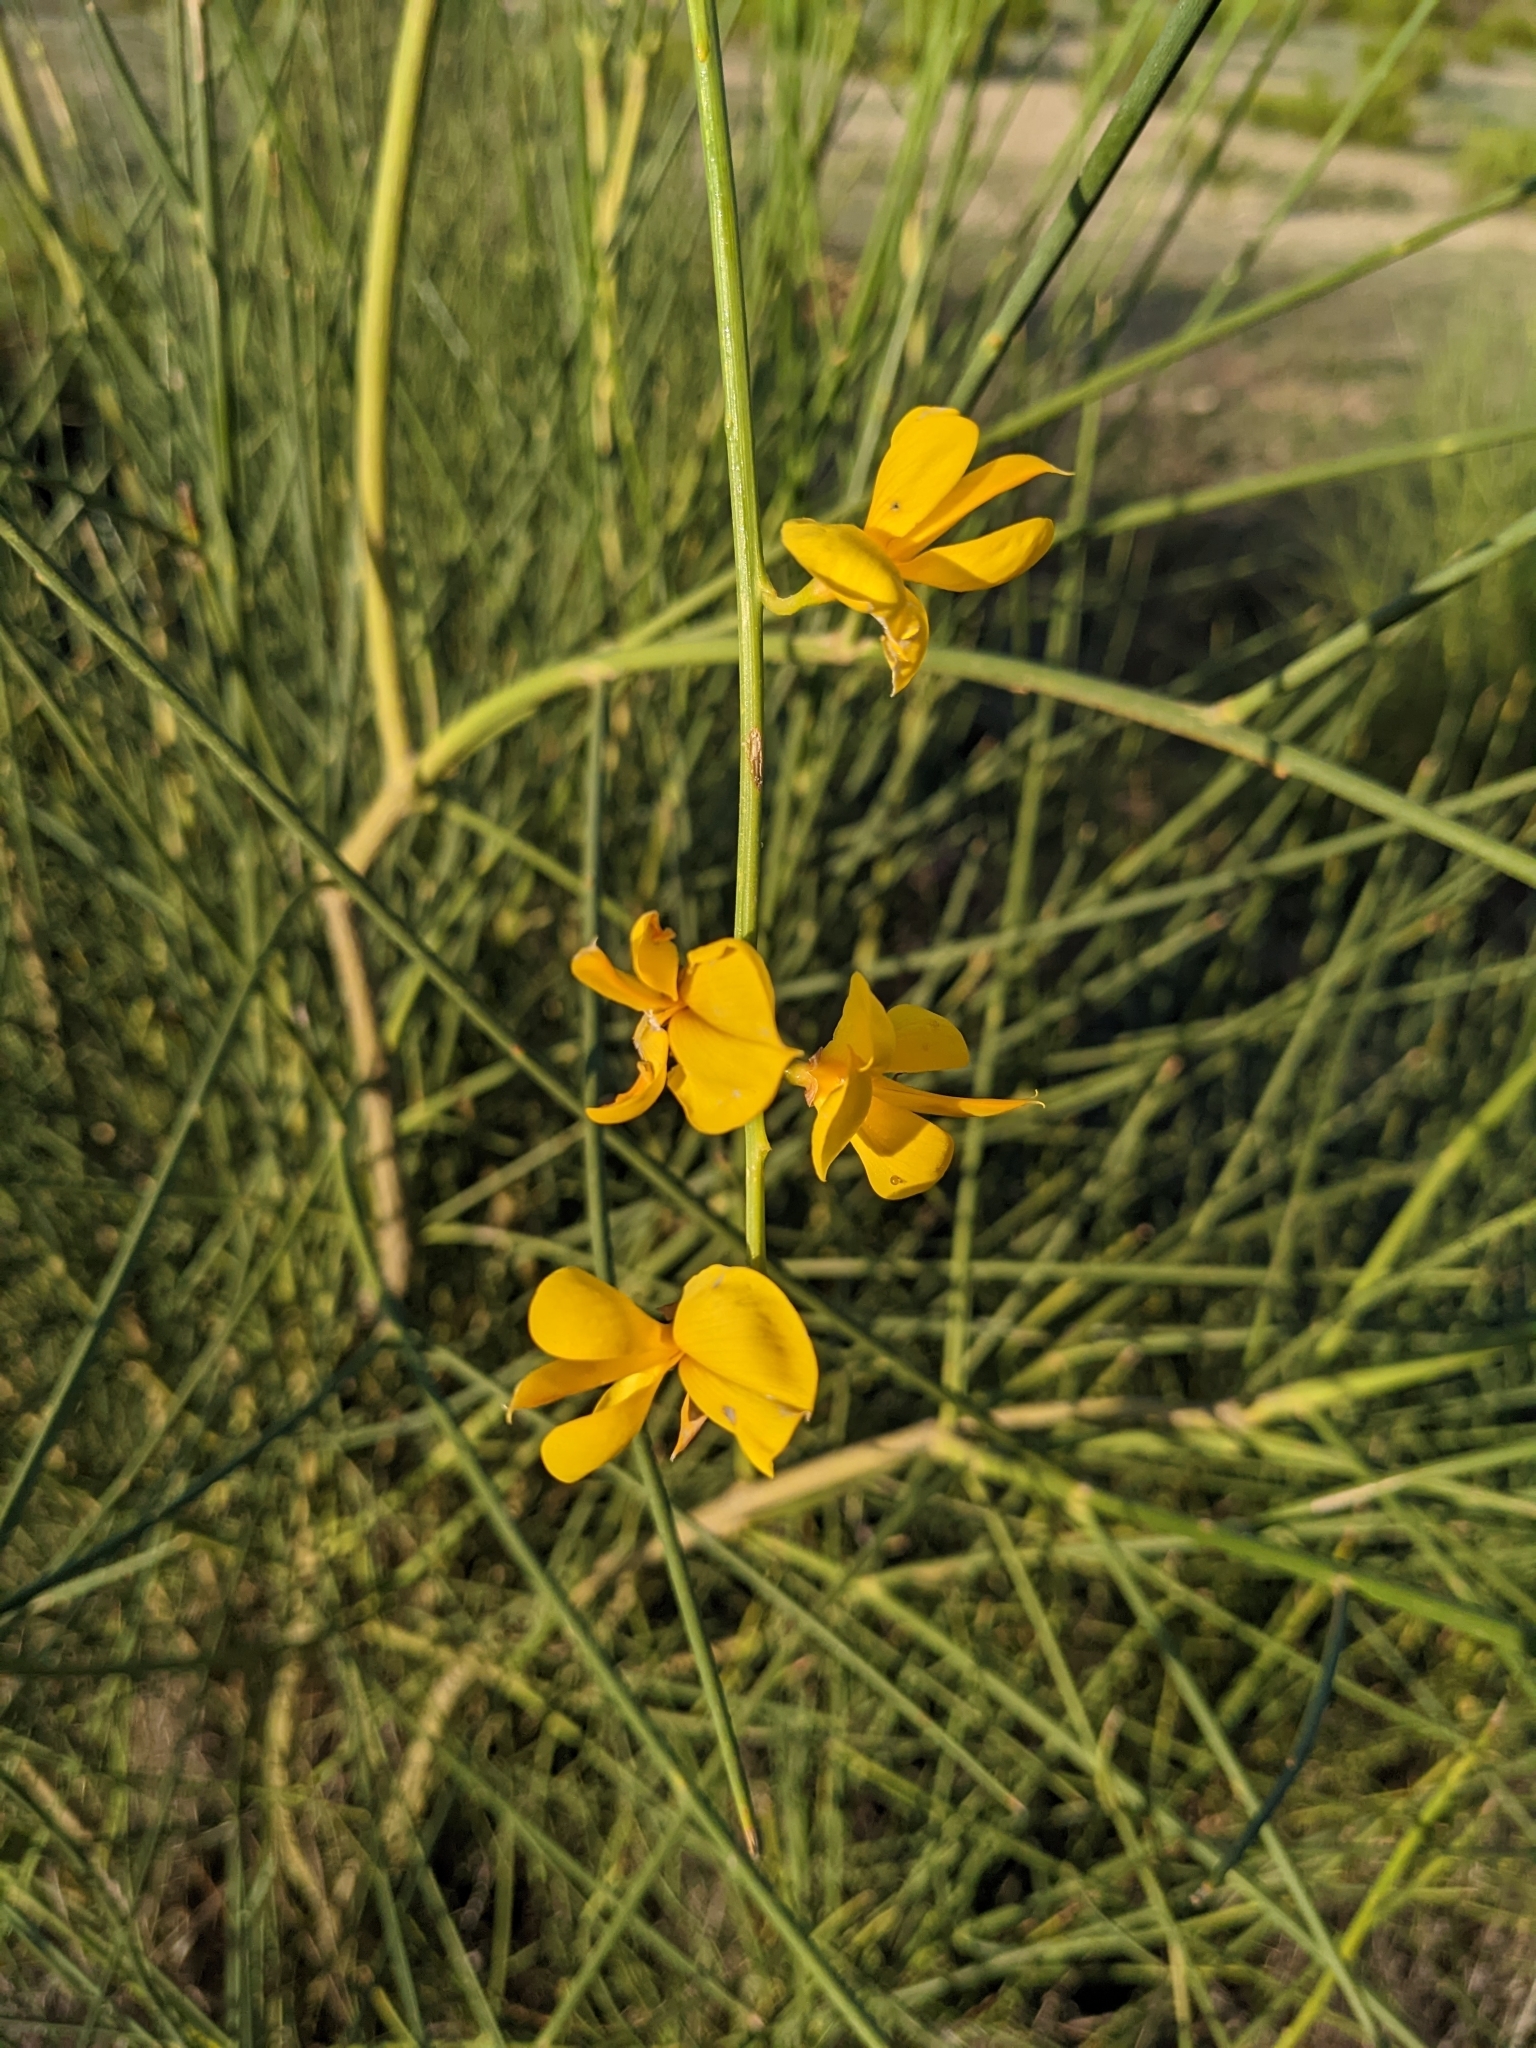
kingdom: Plantae
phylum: Tracheophyta
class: Magnoliopsida
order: Fabales
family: Fabaceae
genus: Spartium
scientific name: Spartium junceum
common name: Spanish broom
